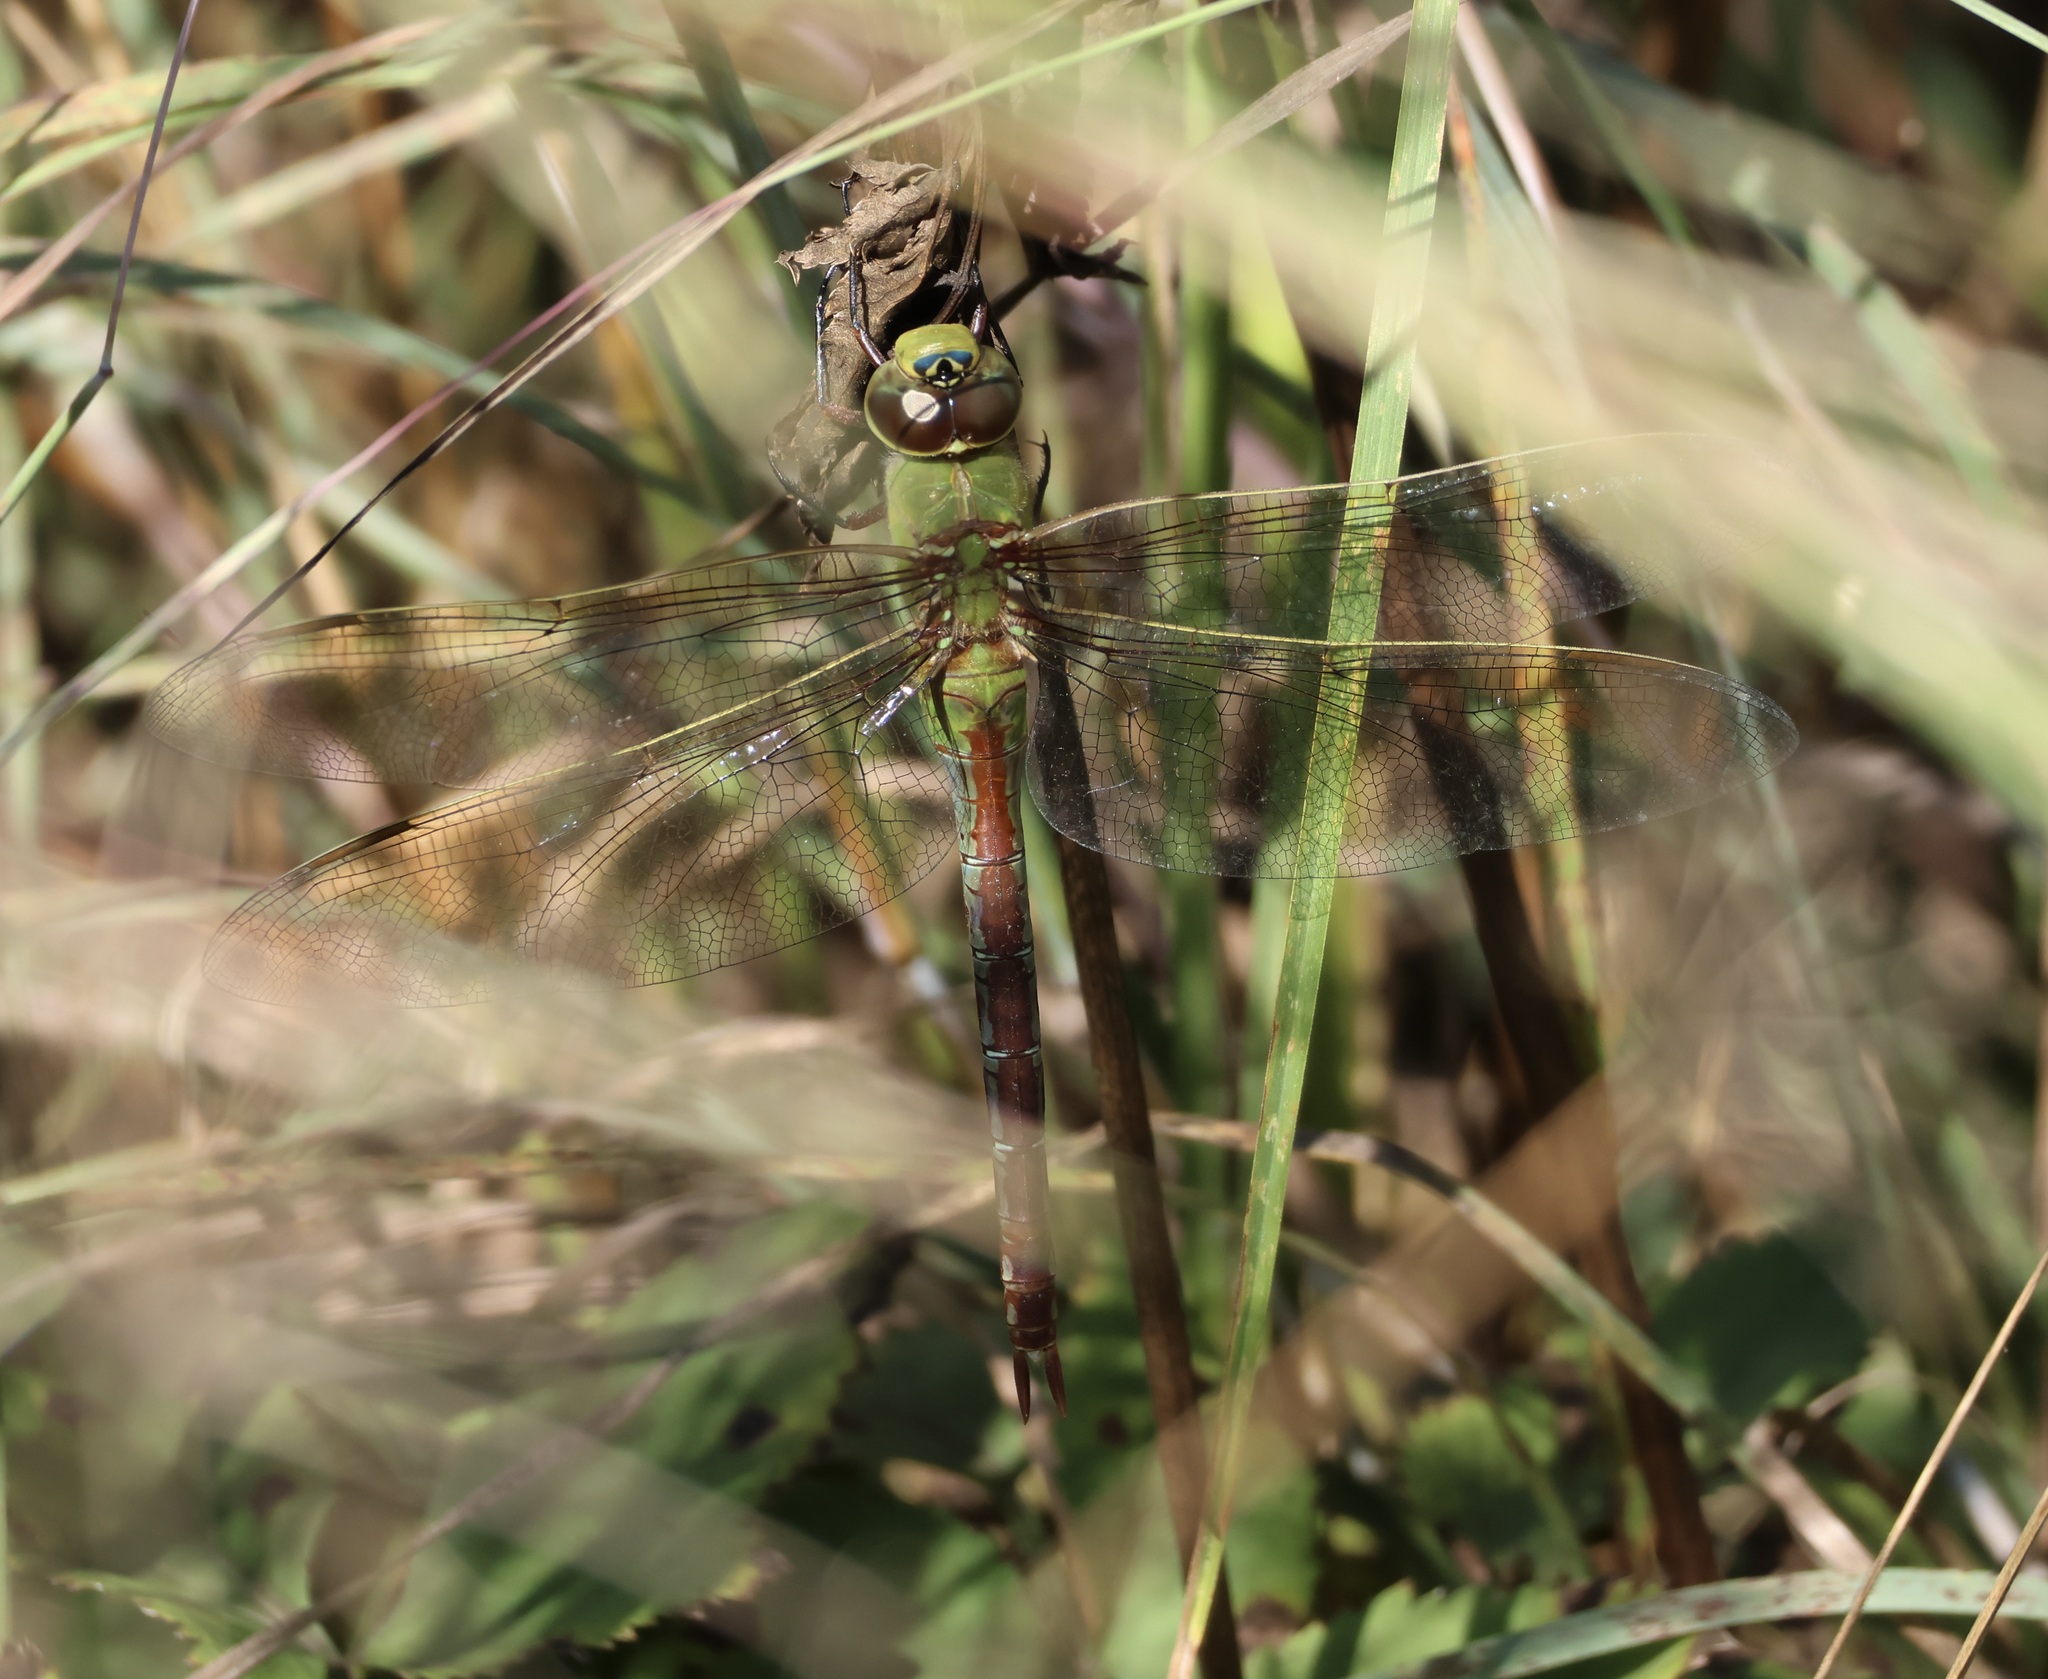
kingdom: Animalia
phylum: Arthropoda
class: Insecta
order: Odonata
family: Aeshnidae
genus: Anax
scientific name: Anax junius
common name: Common green darner
